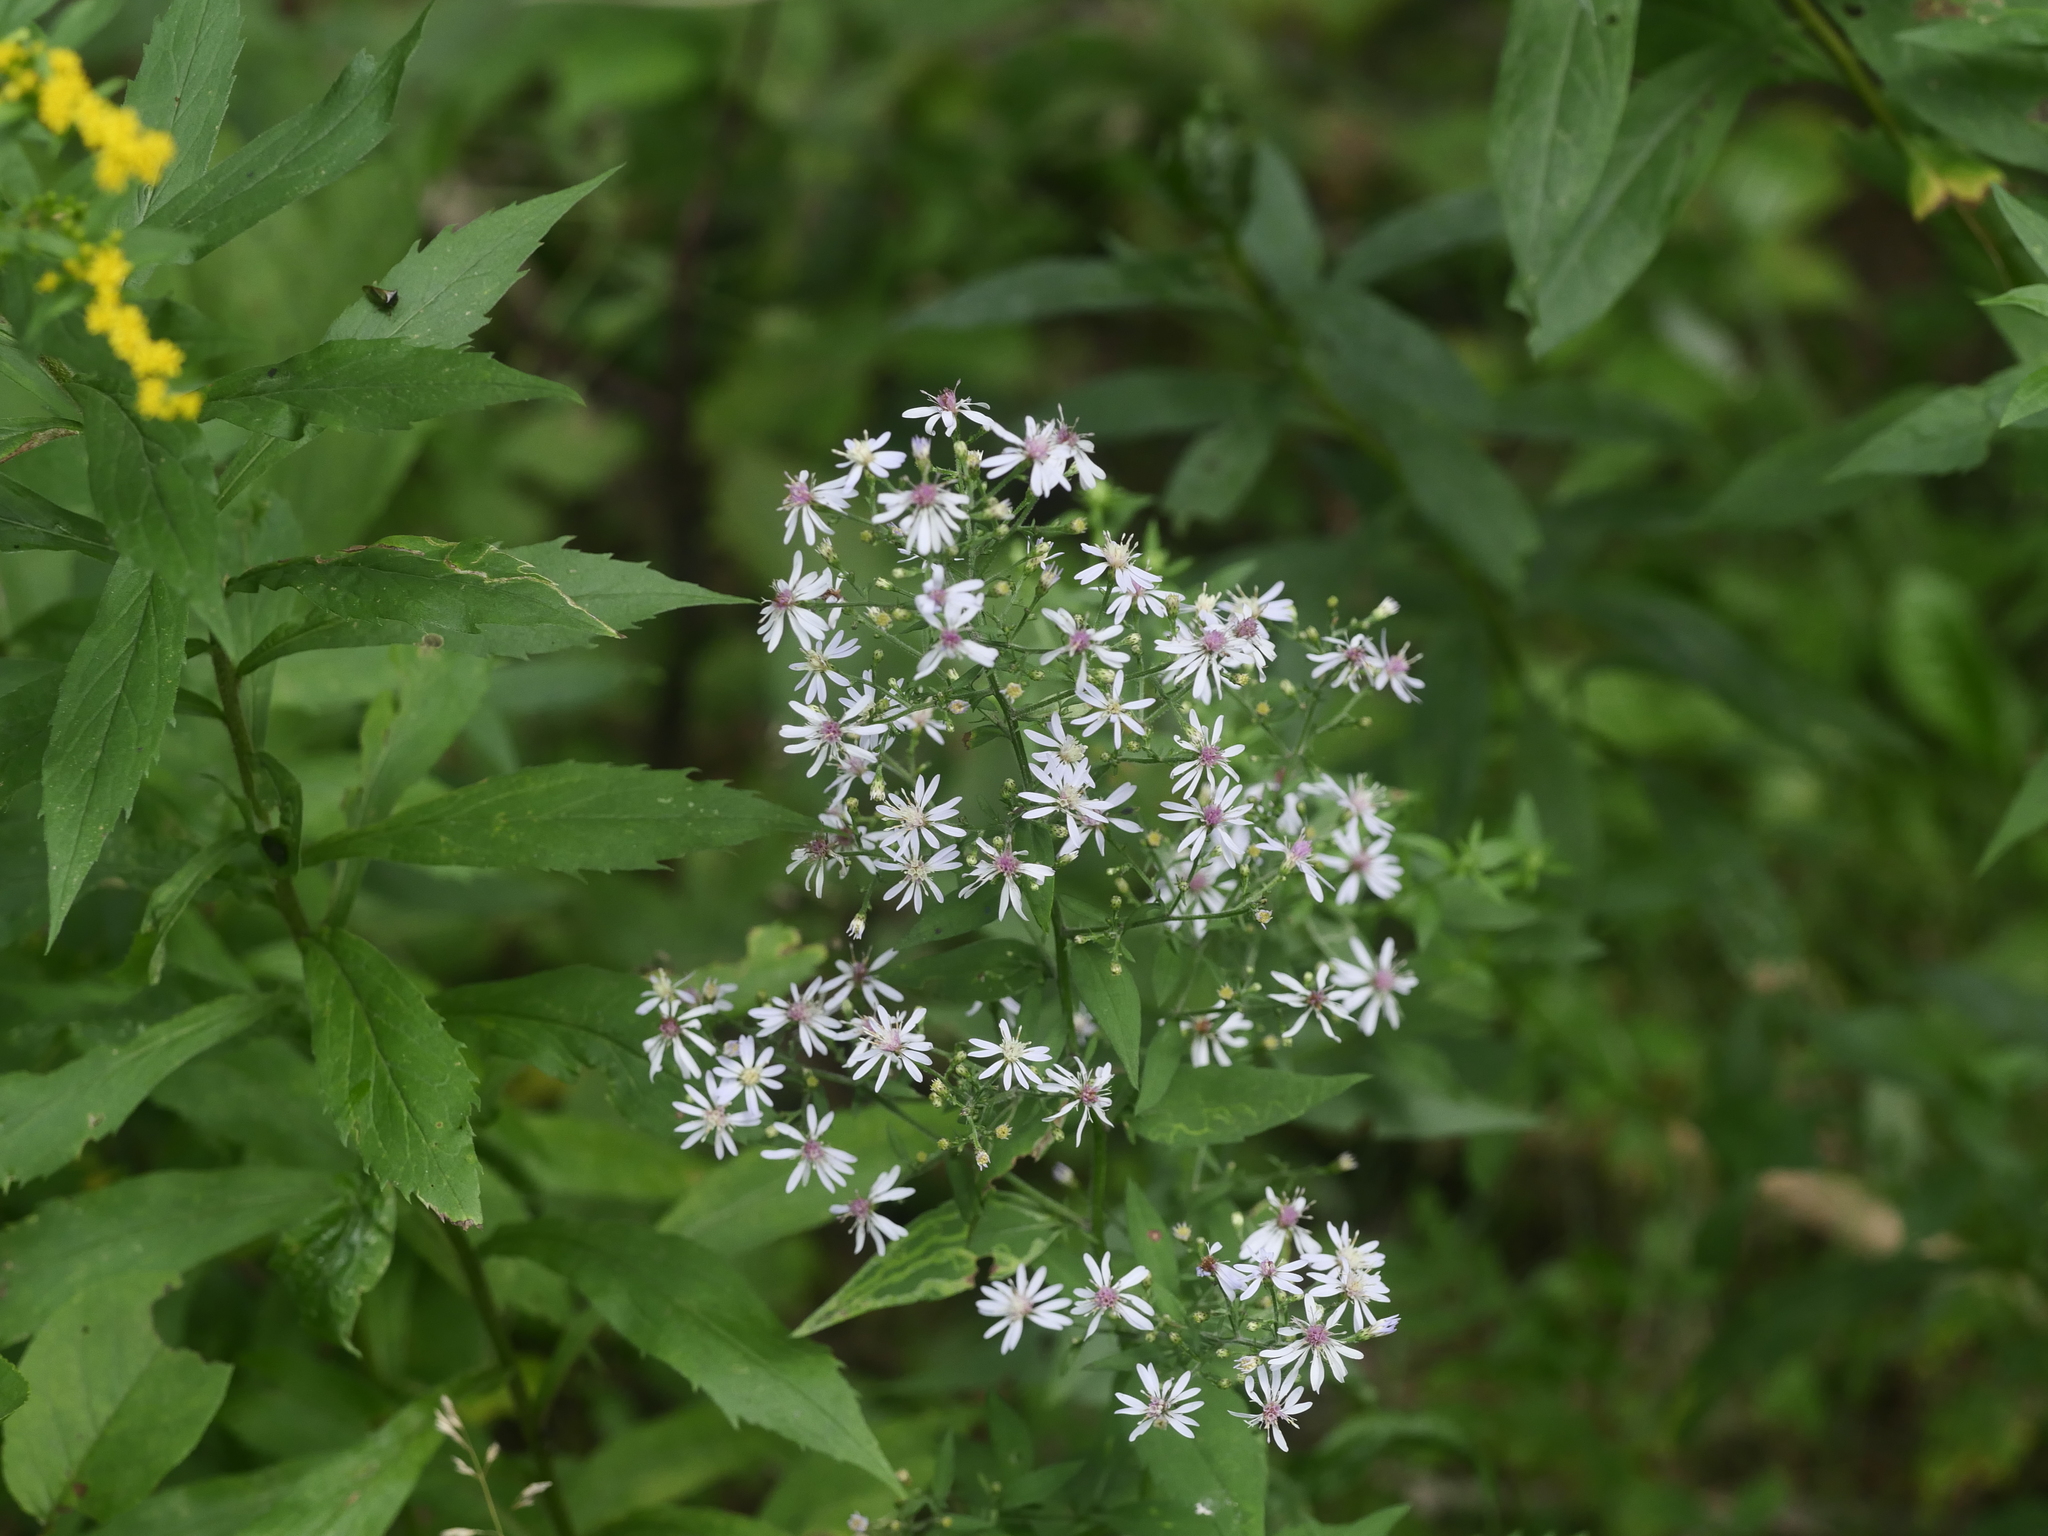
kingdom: Plantae
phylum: Tracheophyta
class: Magnoliopsida
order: Asterales
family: Asteraceae
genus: Symphyotrichum
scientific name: Symphyotrichum cordifolium
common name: Beeweed
